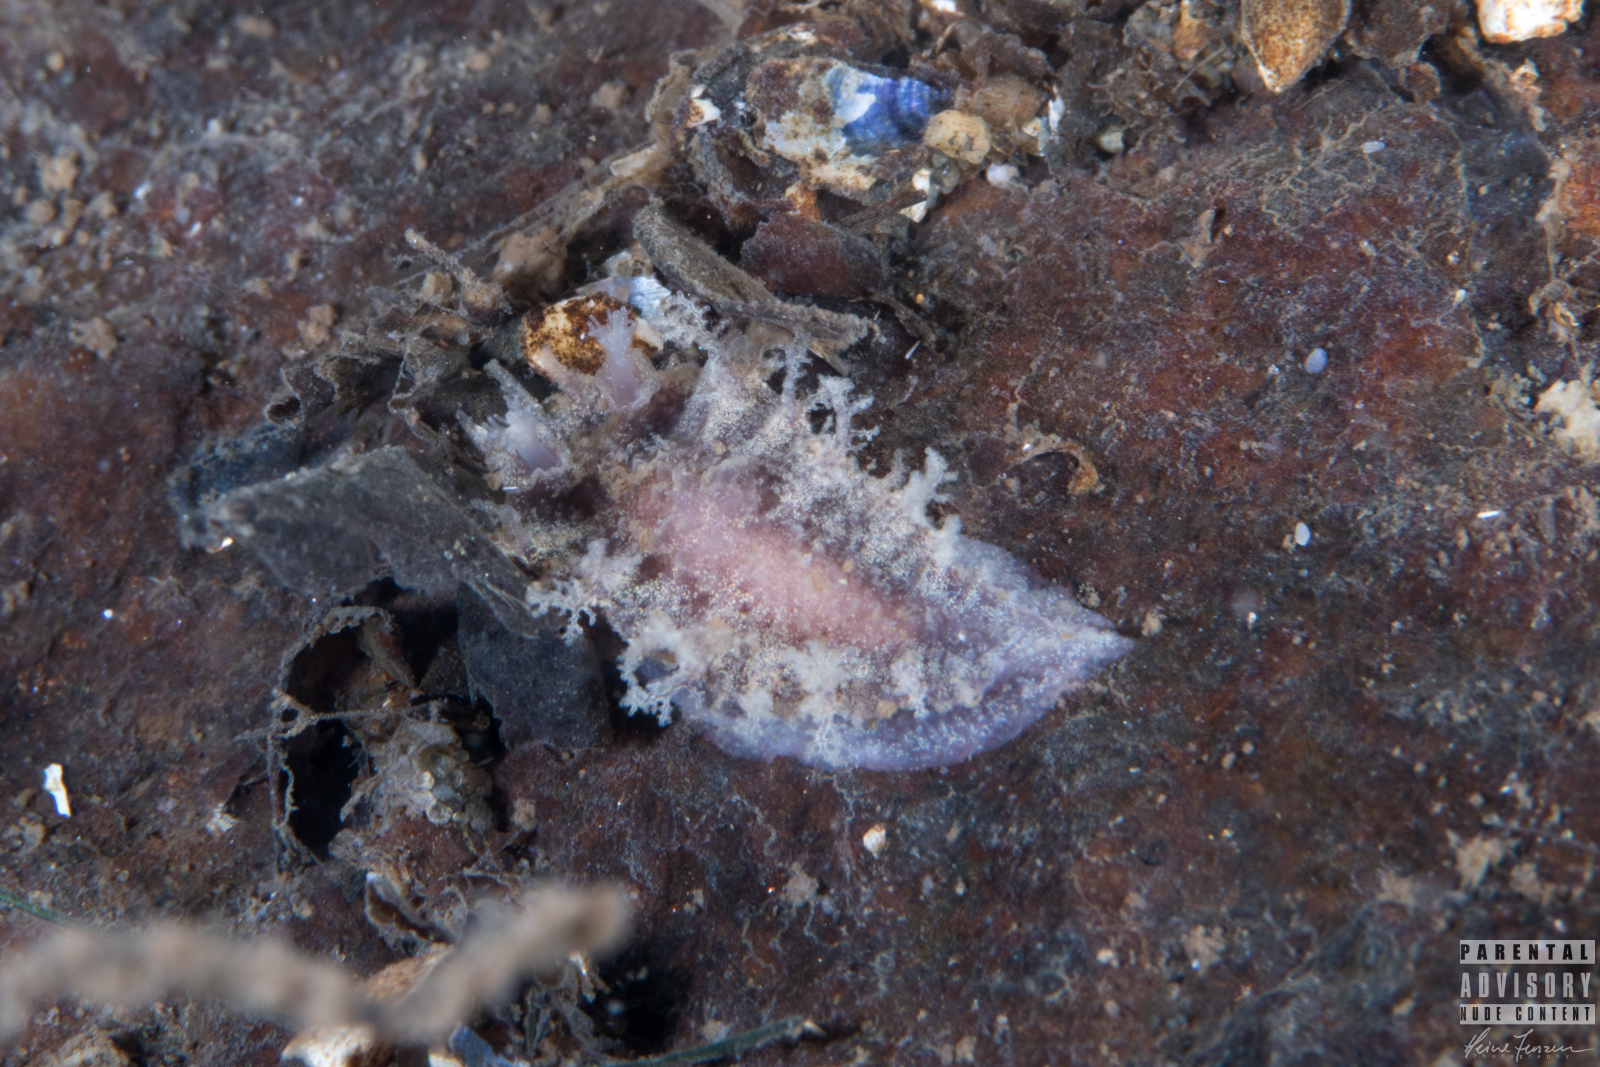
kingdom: Animalia
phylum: Mollusca
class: Gastropoda
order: Nudibranchia
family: Tritoniidae
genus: Duvaucelia
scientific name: Duvaucelia plebeia
